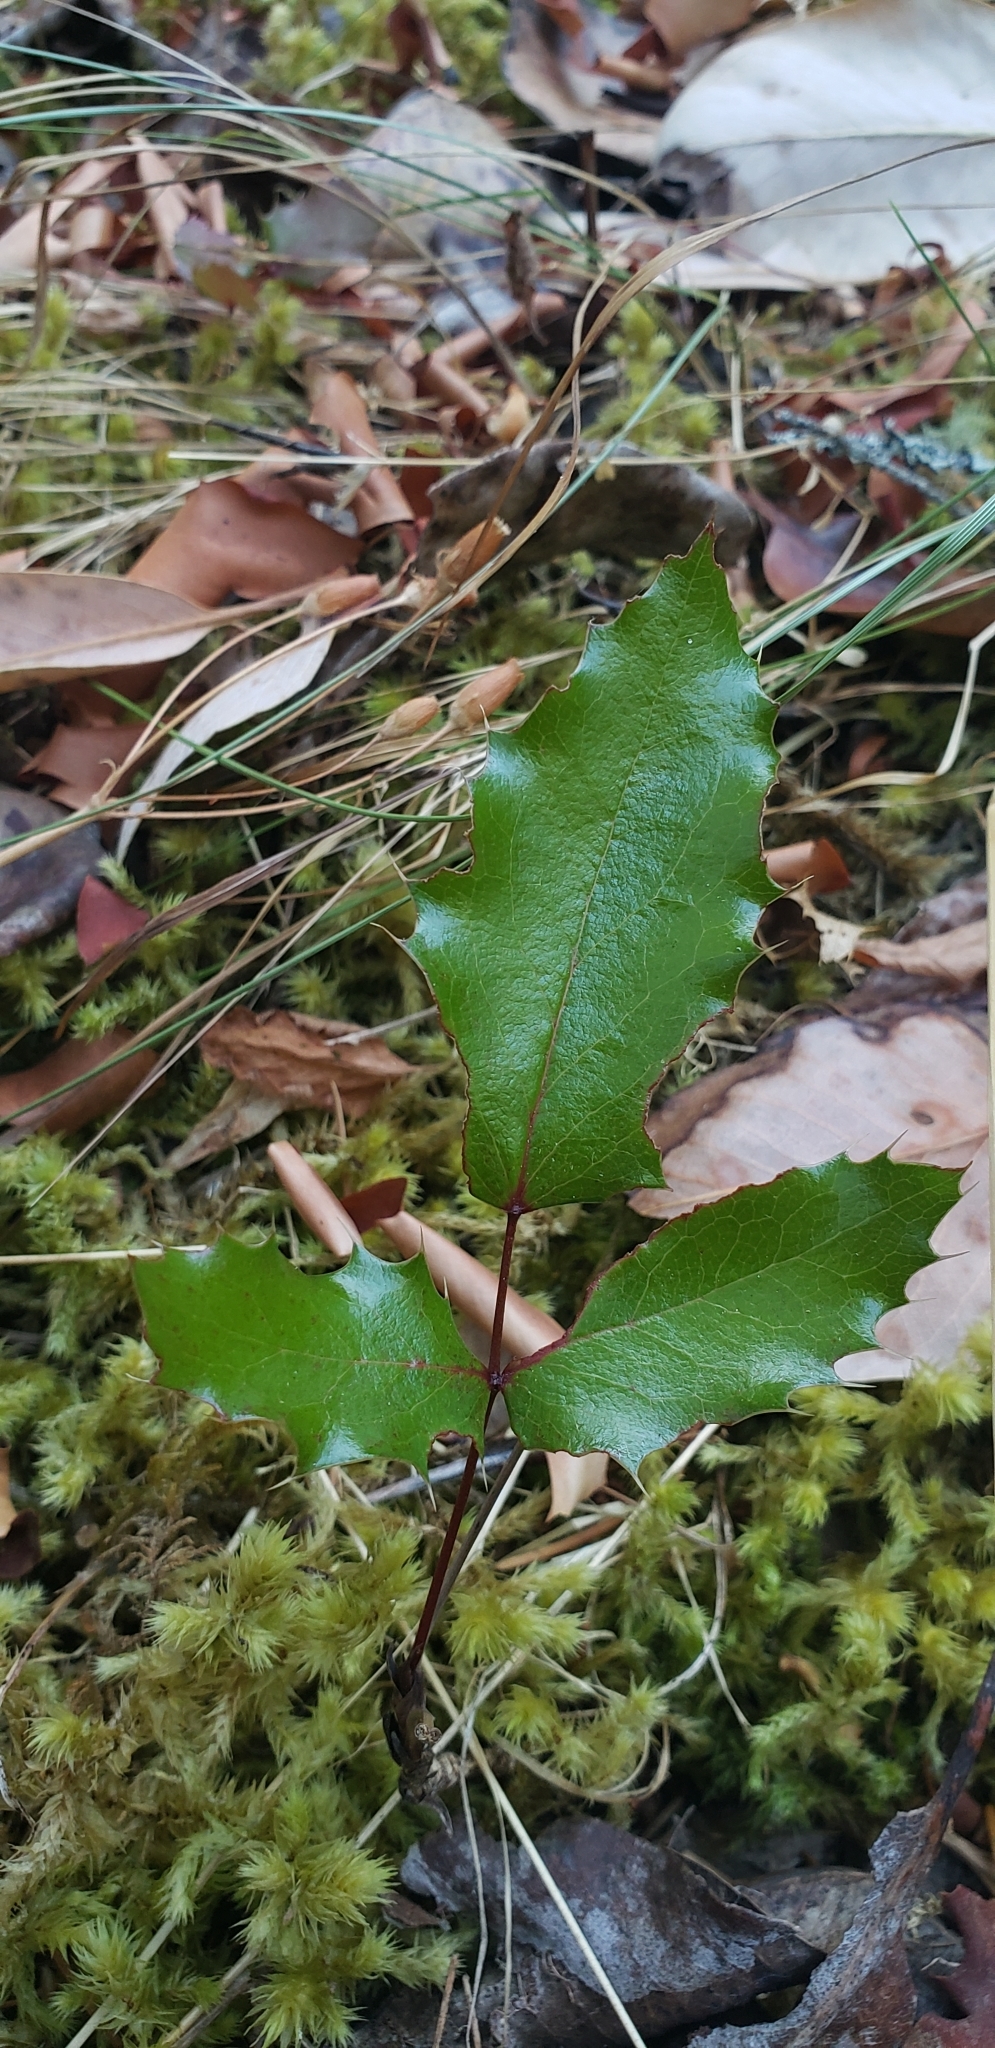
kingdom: Plantae
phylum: Tracheophyta
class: Magnoliopsida
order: Ranunculales
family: Berberidaceae
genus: Mahonia
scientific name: Mahonia aquifolium
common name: Oregon-grape
